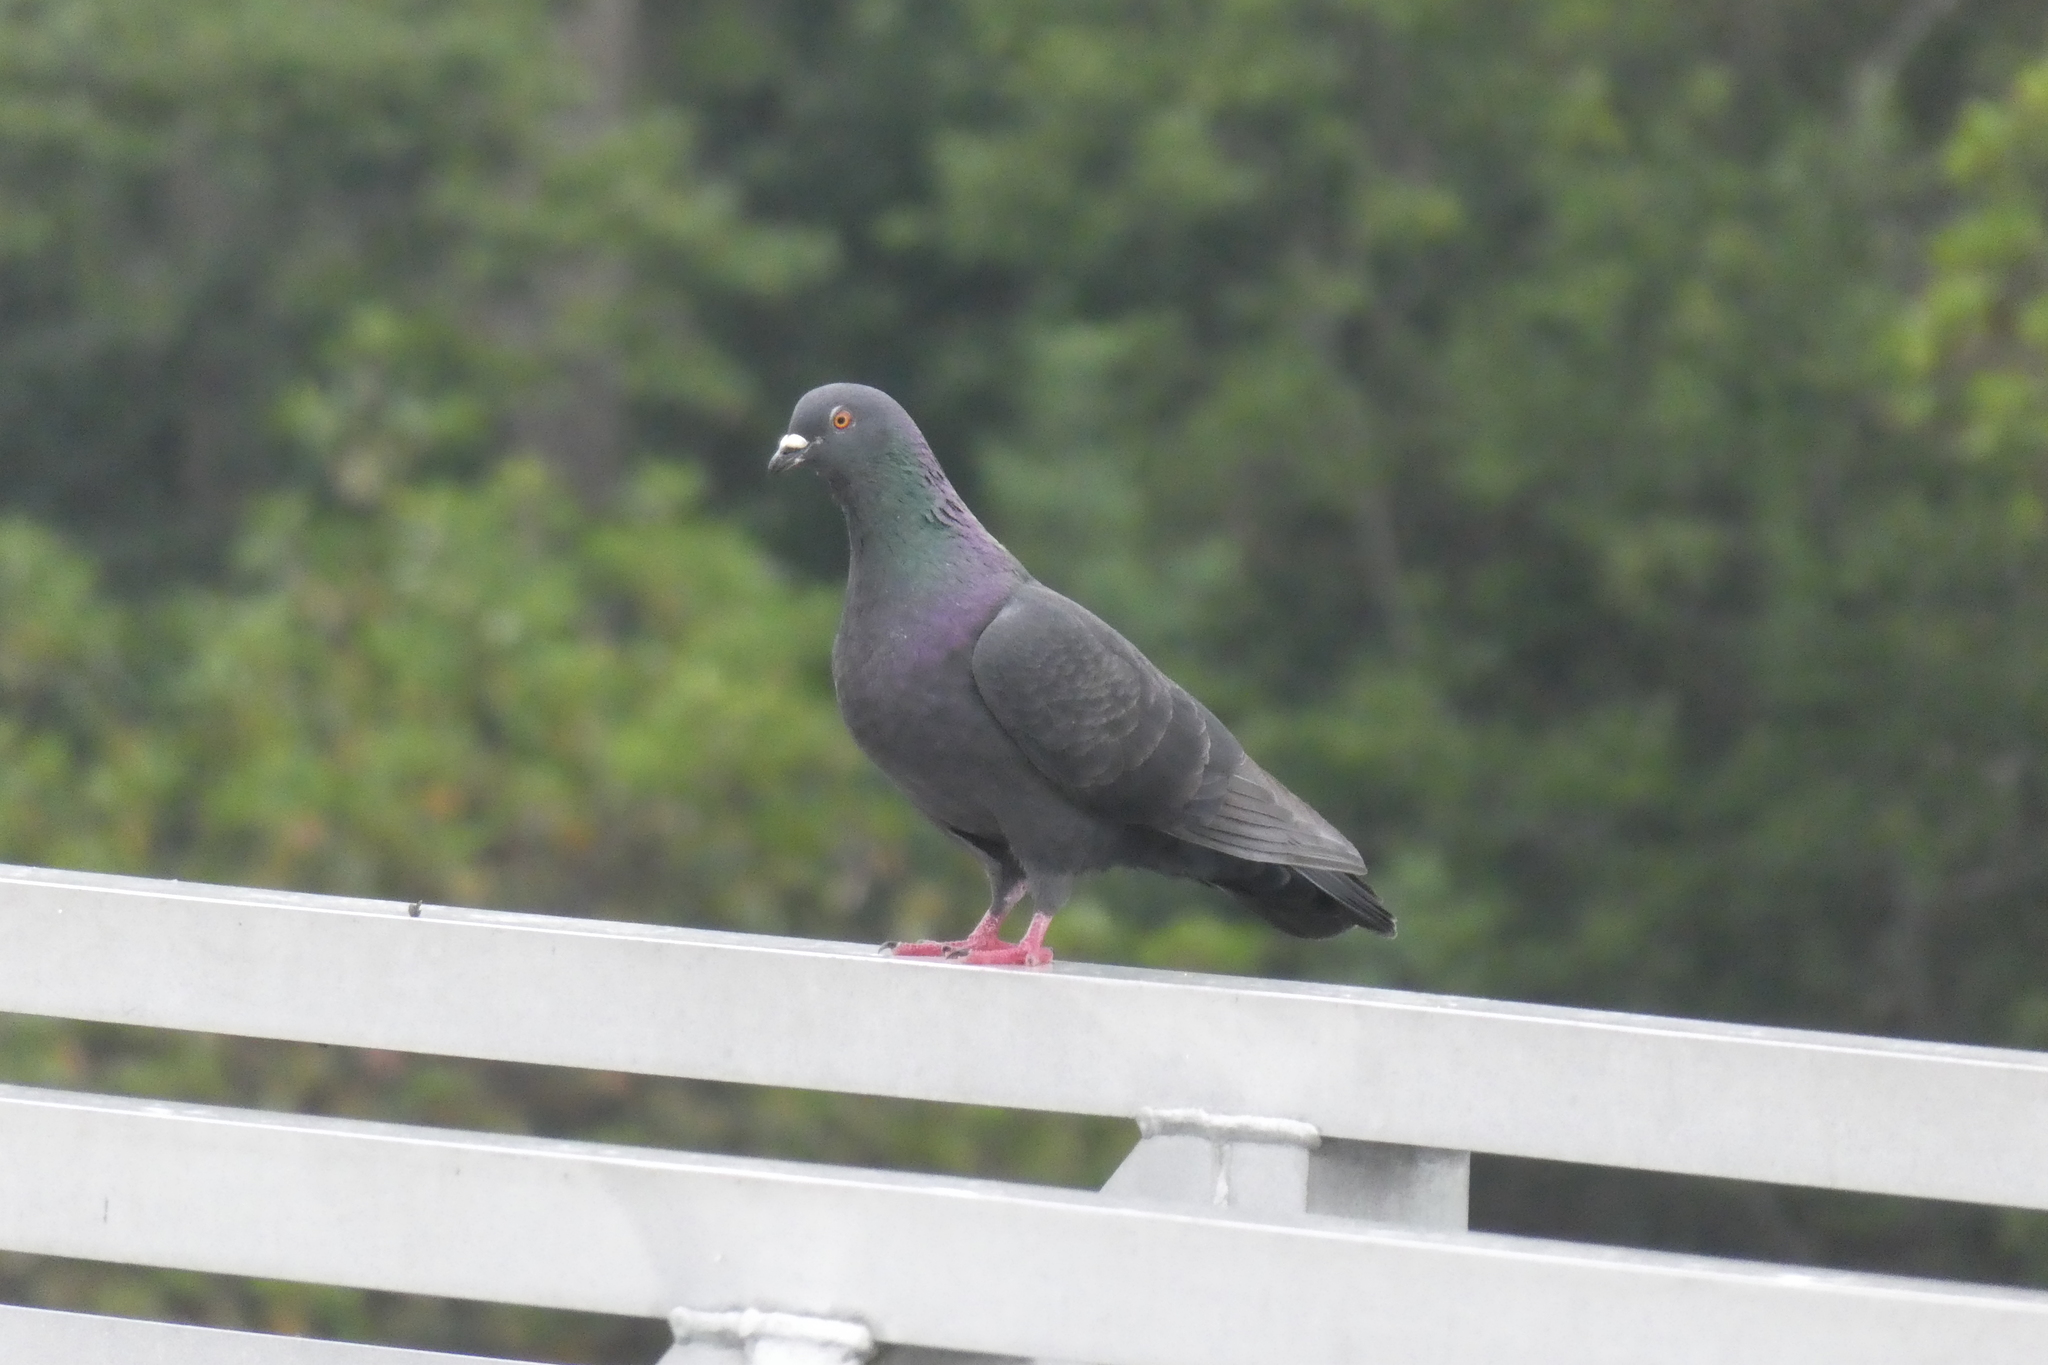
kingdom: Animalia
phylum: Chordata
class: Aves
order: Columbiformes
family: Columbidae
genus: Columba
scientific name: Columba livia
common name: Rock pigeon
